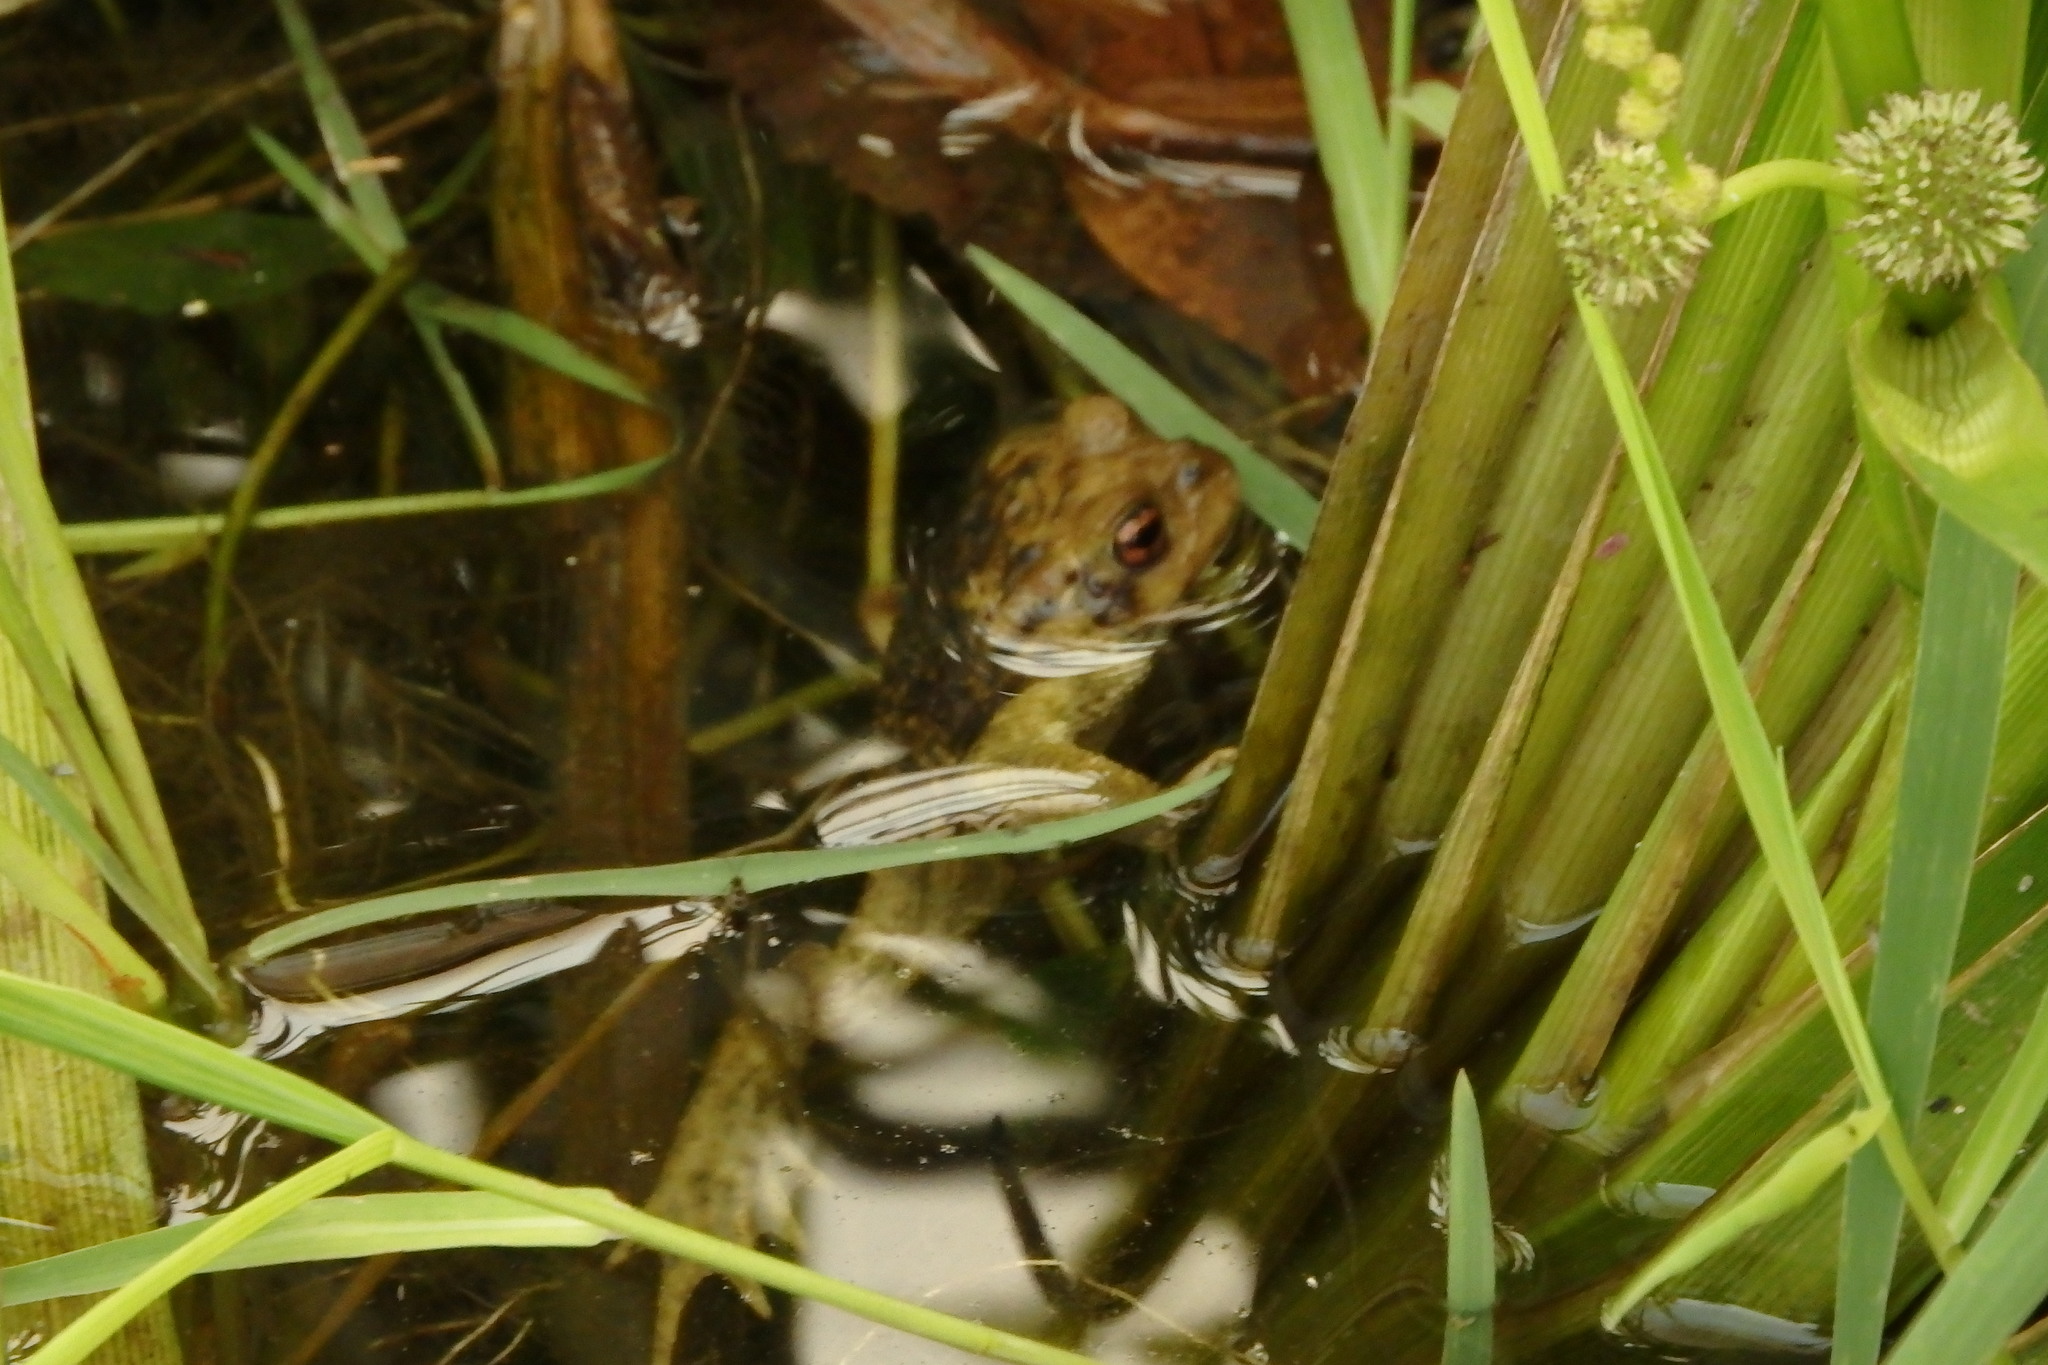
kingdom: Animalia
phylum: Chordata
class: Amphibia
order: Anura
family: Bufonidae
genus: Bufo
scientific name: Bufo spinosus
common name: Western common toad
